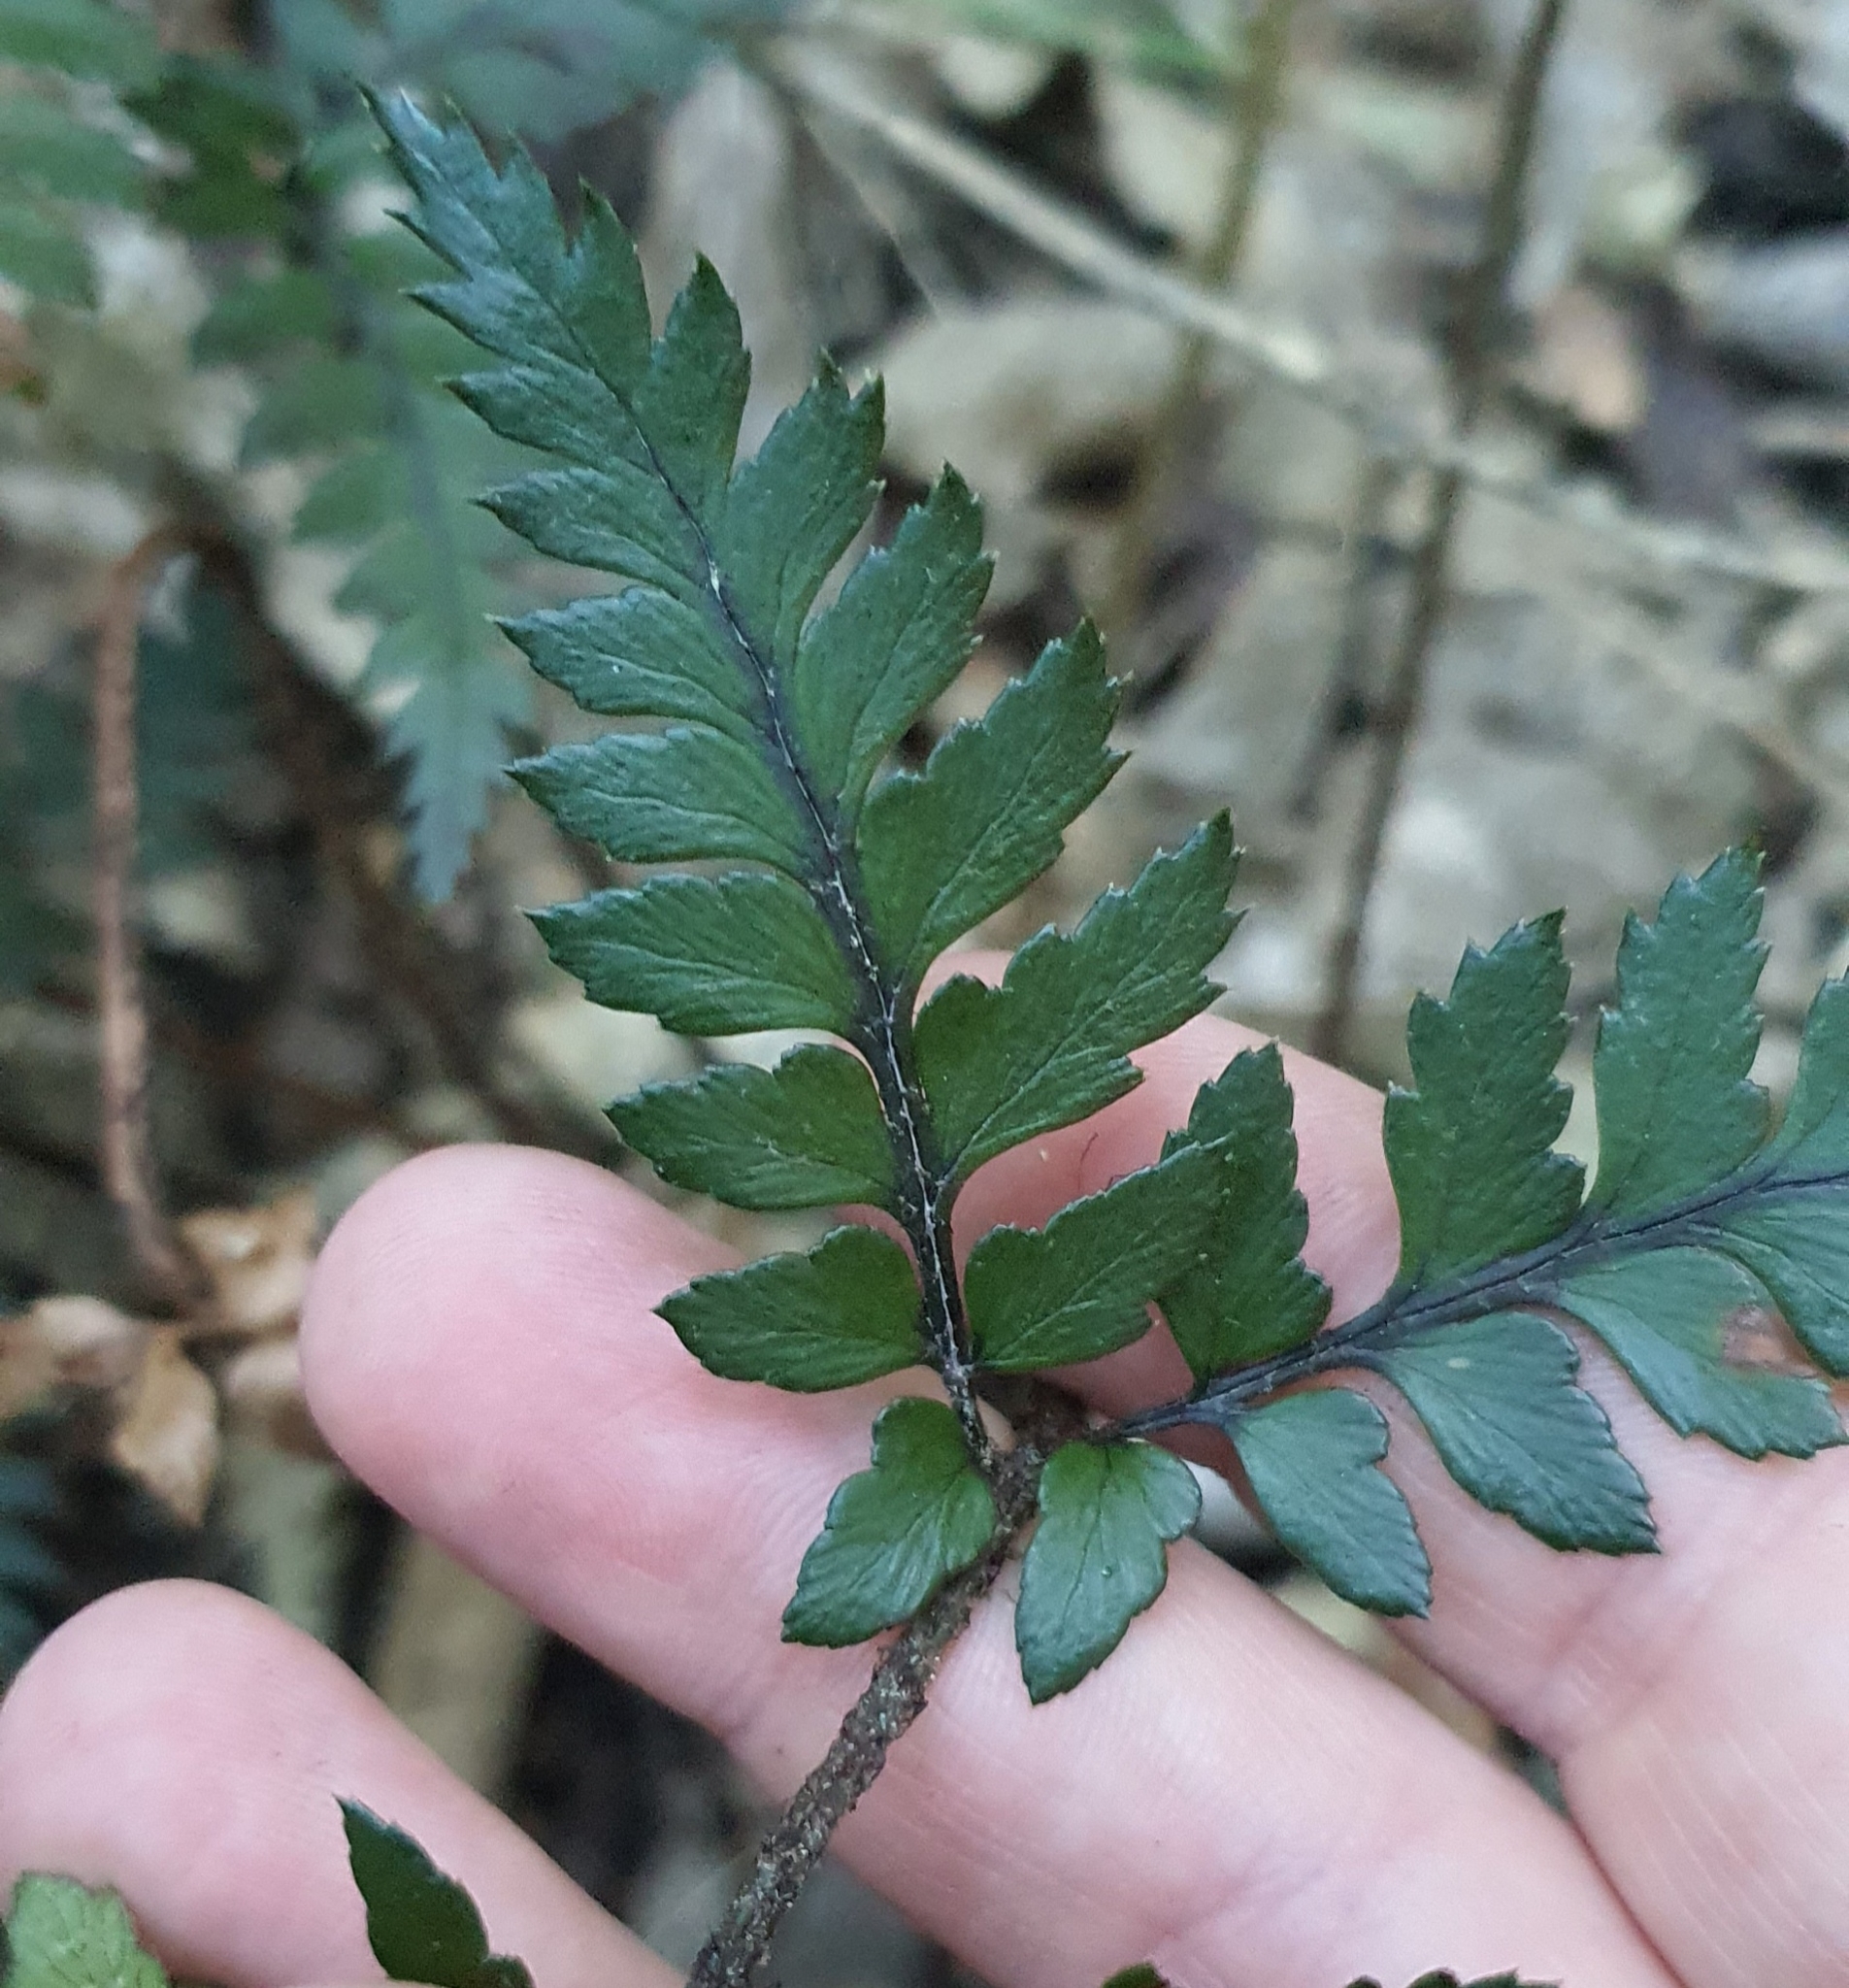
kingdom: Plantae
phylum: Tracheophyta
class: Polypodiopsida
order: Polypodiales
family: Dryopteridaceae
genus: Polystichum
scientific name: Polystichum neozelandicum
